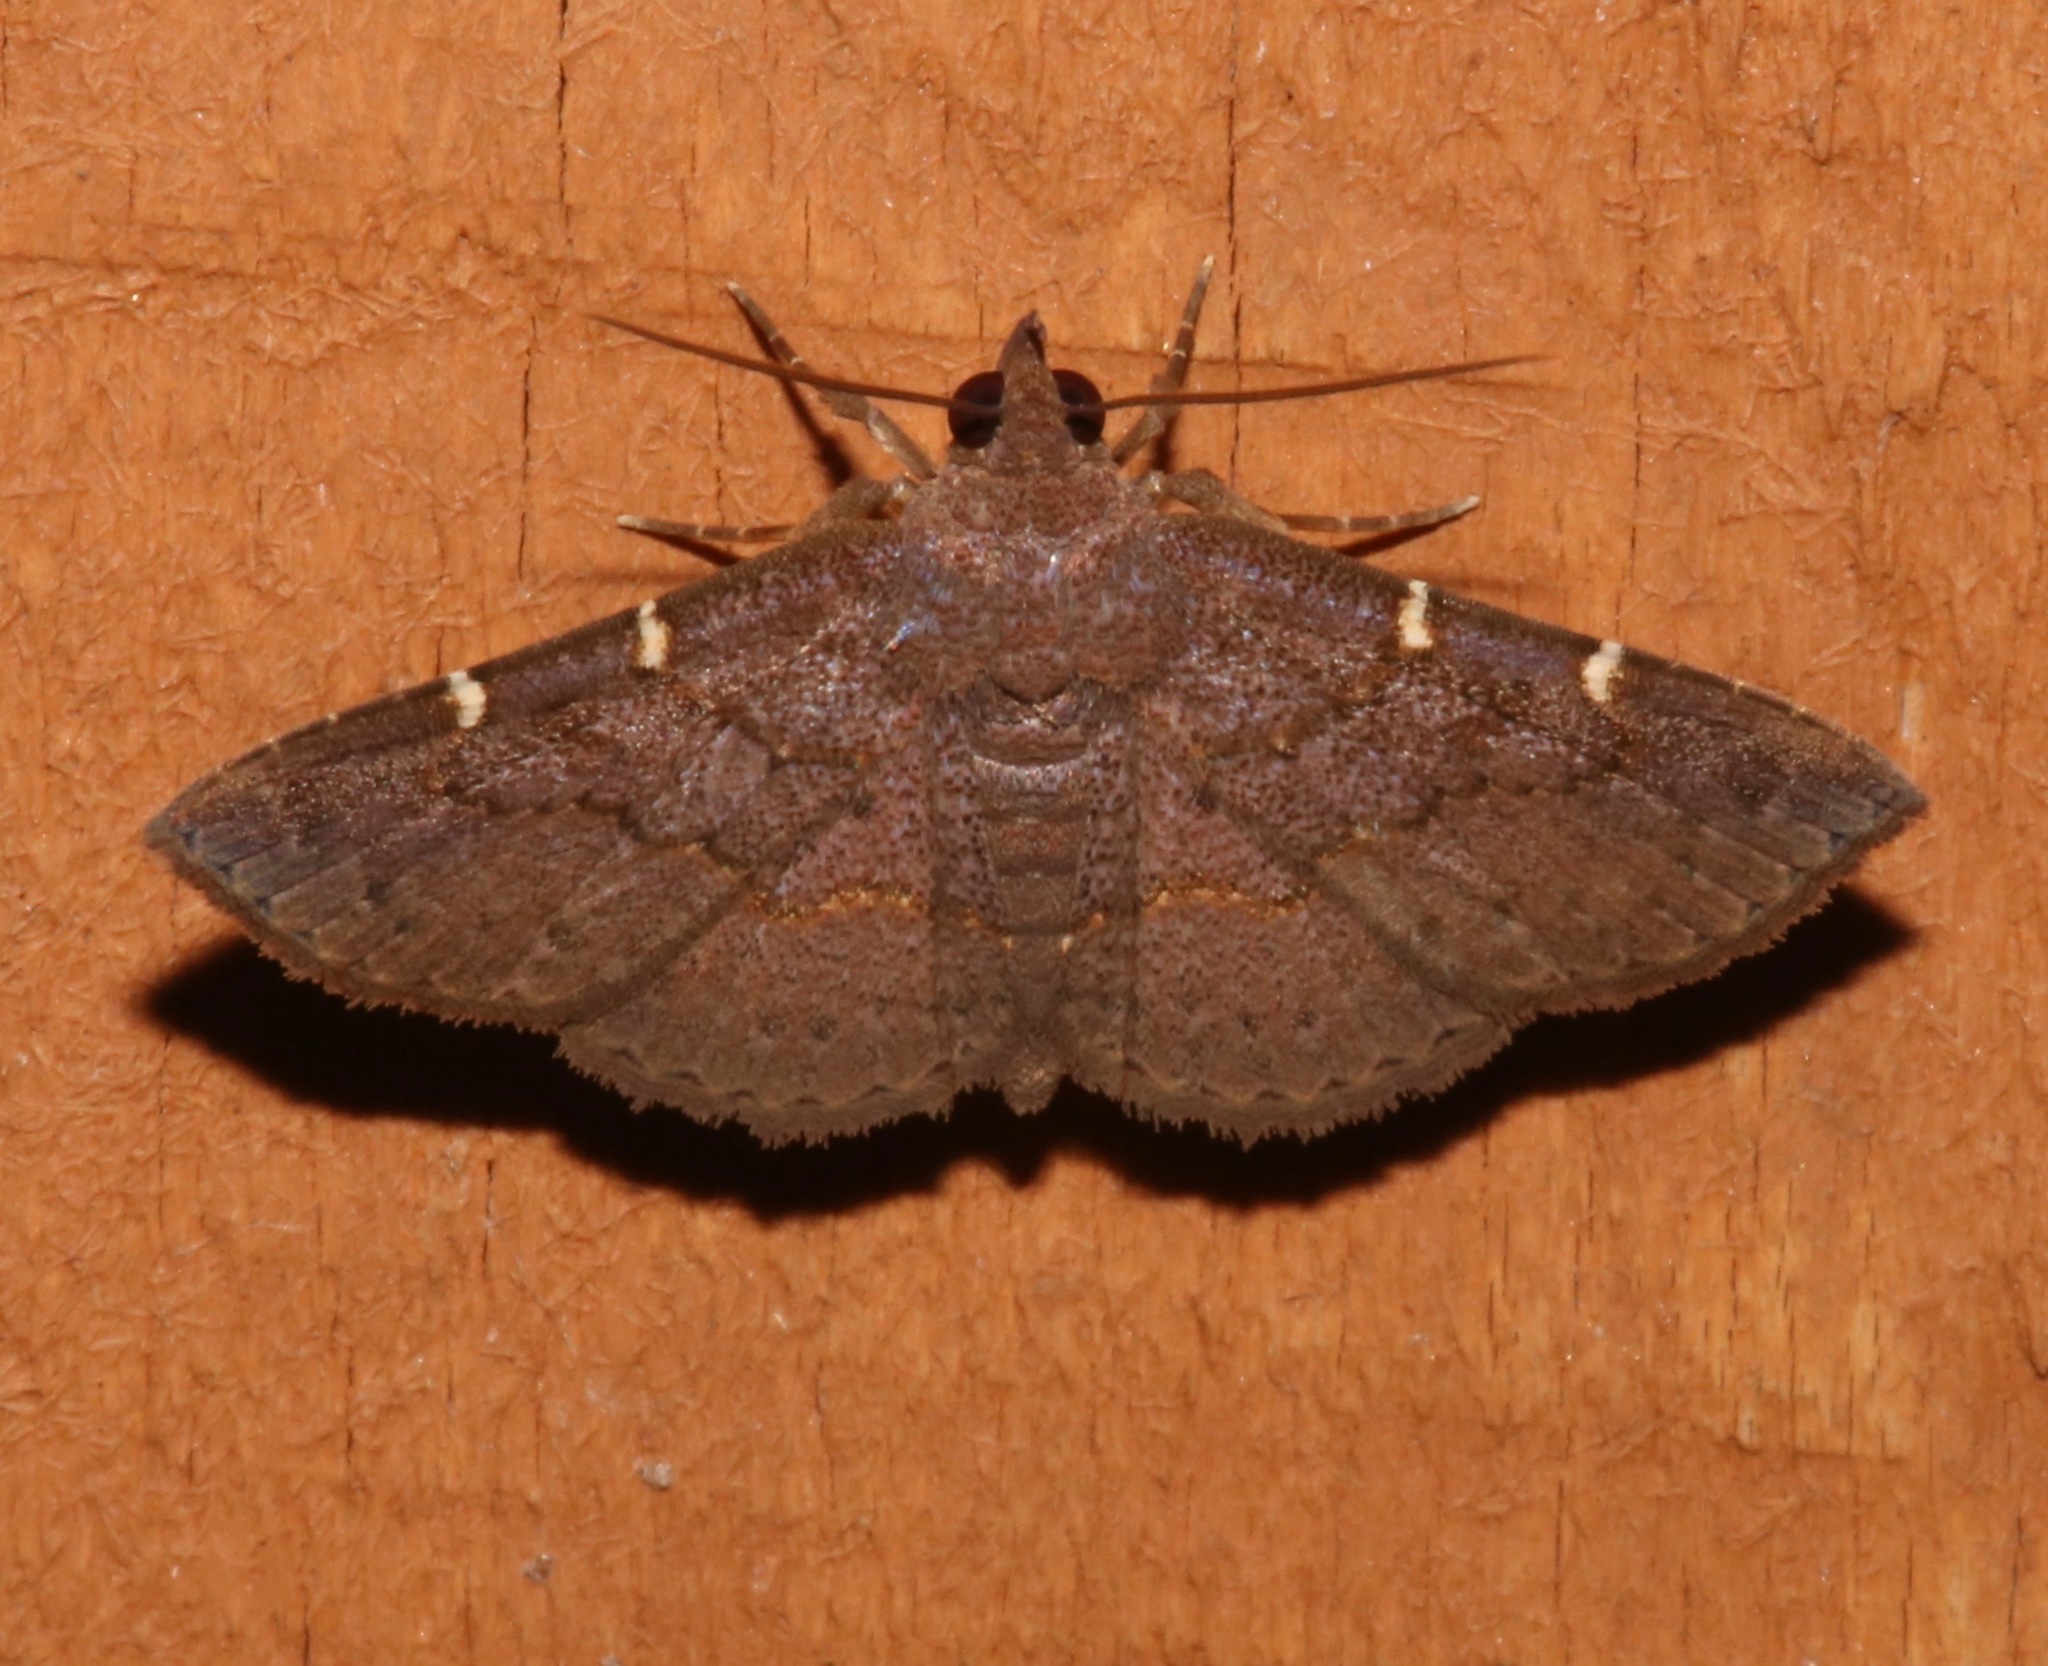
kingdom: Animalia
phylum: Arthropoda
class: Insecta
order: Lepidoptera
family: Erebidae
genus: Antiblemma
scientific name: Antiblemma perva
